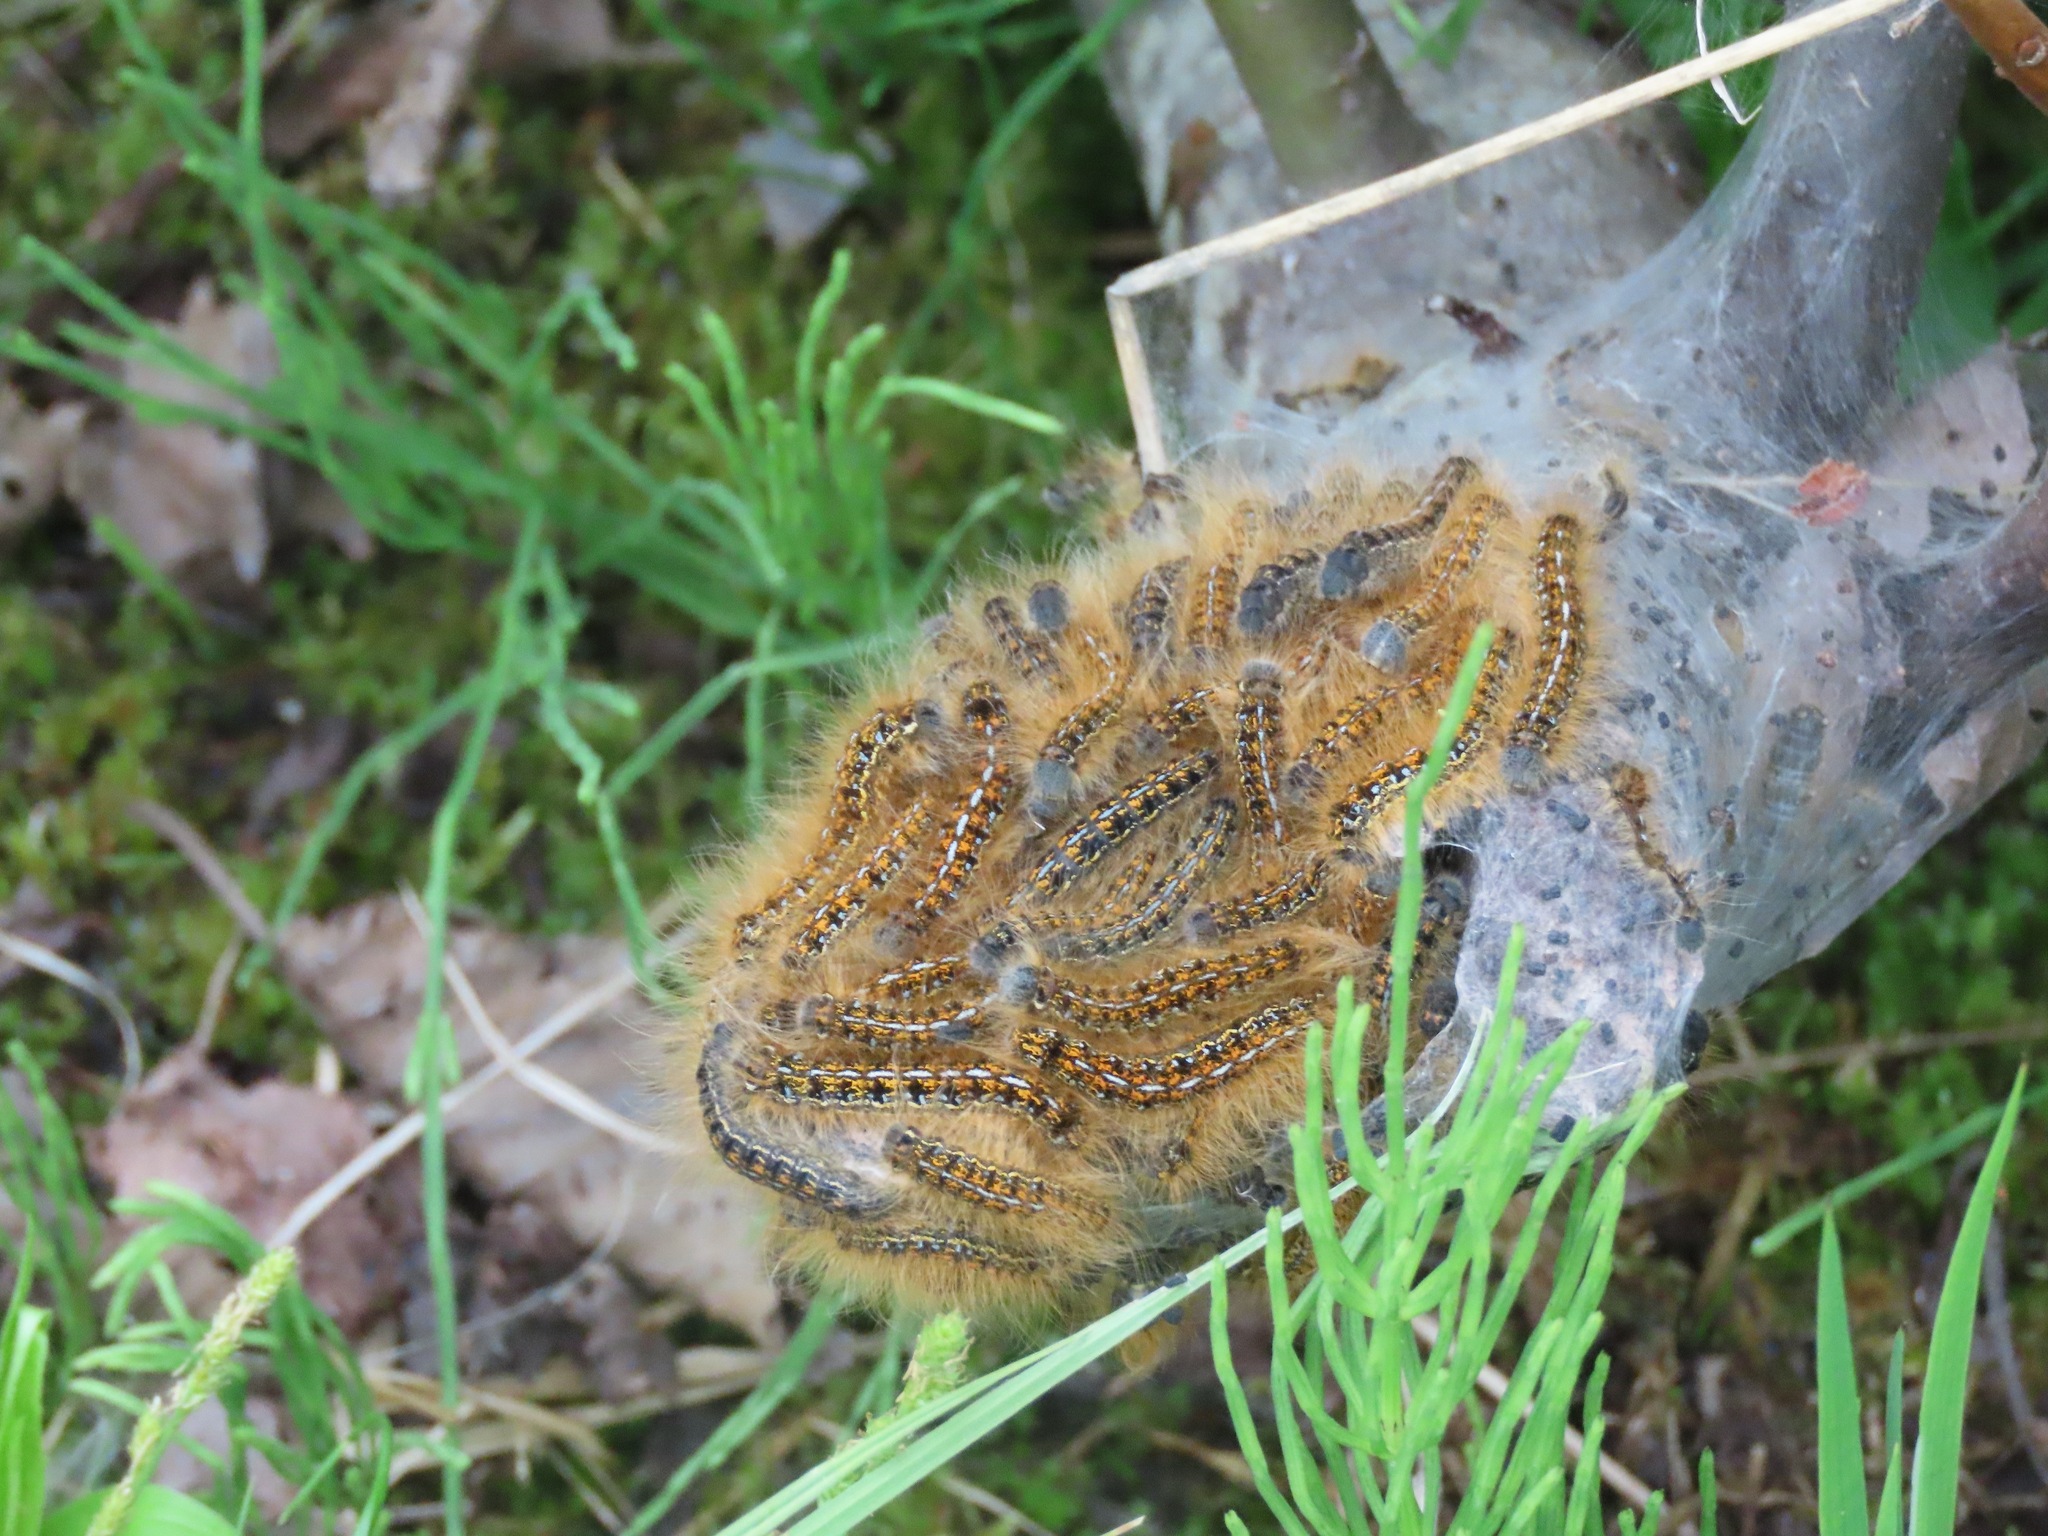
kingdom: Animalia
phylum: Arthropoda
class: Insecta
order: Lepidoptera
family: Lasiocampidae
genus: Malacosoma
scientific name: Malacosoma californica
